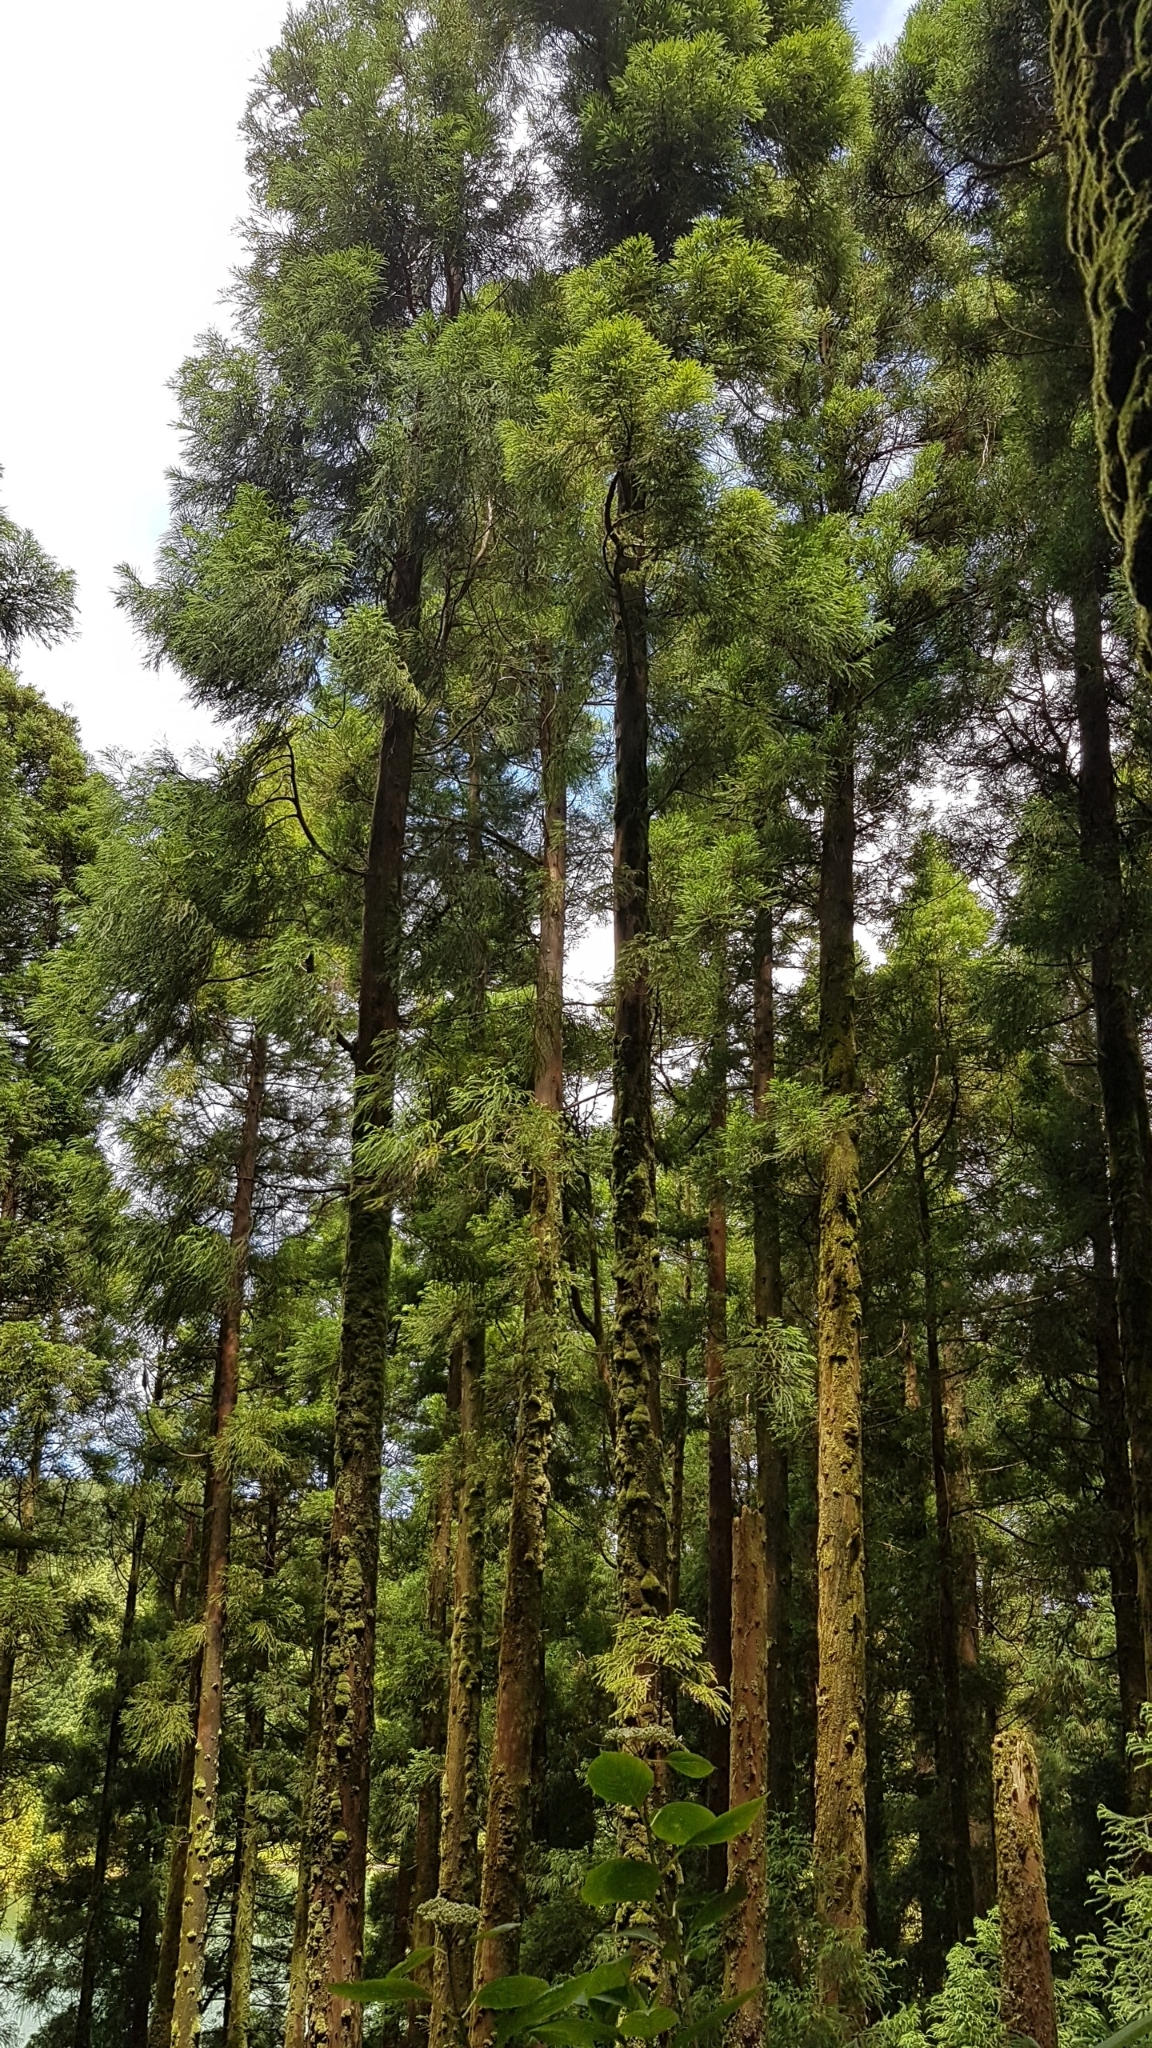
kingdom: Plantae
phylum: Tracheophyta
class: Pinopsida
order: Pinales
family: Cupressaceae
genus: Cryptomeria
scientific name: Cryptomeria japonica
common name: Japanese cedar
